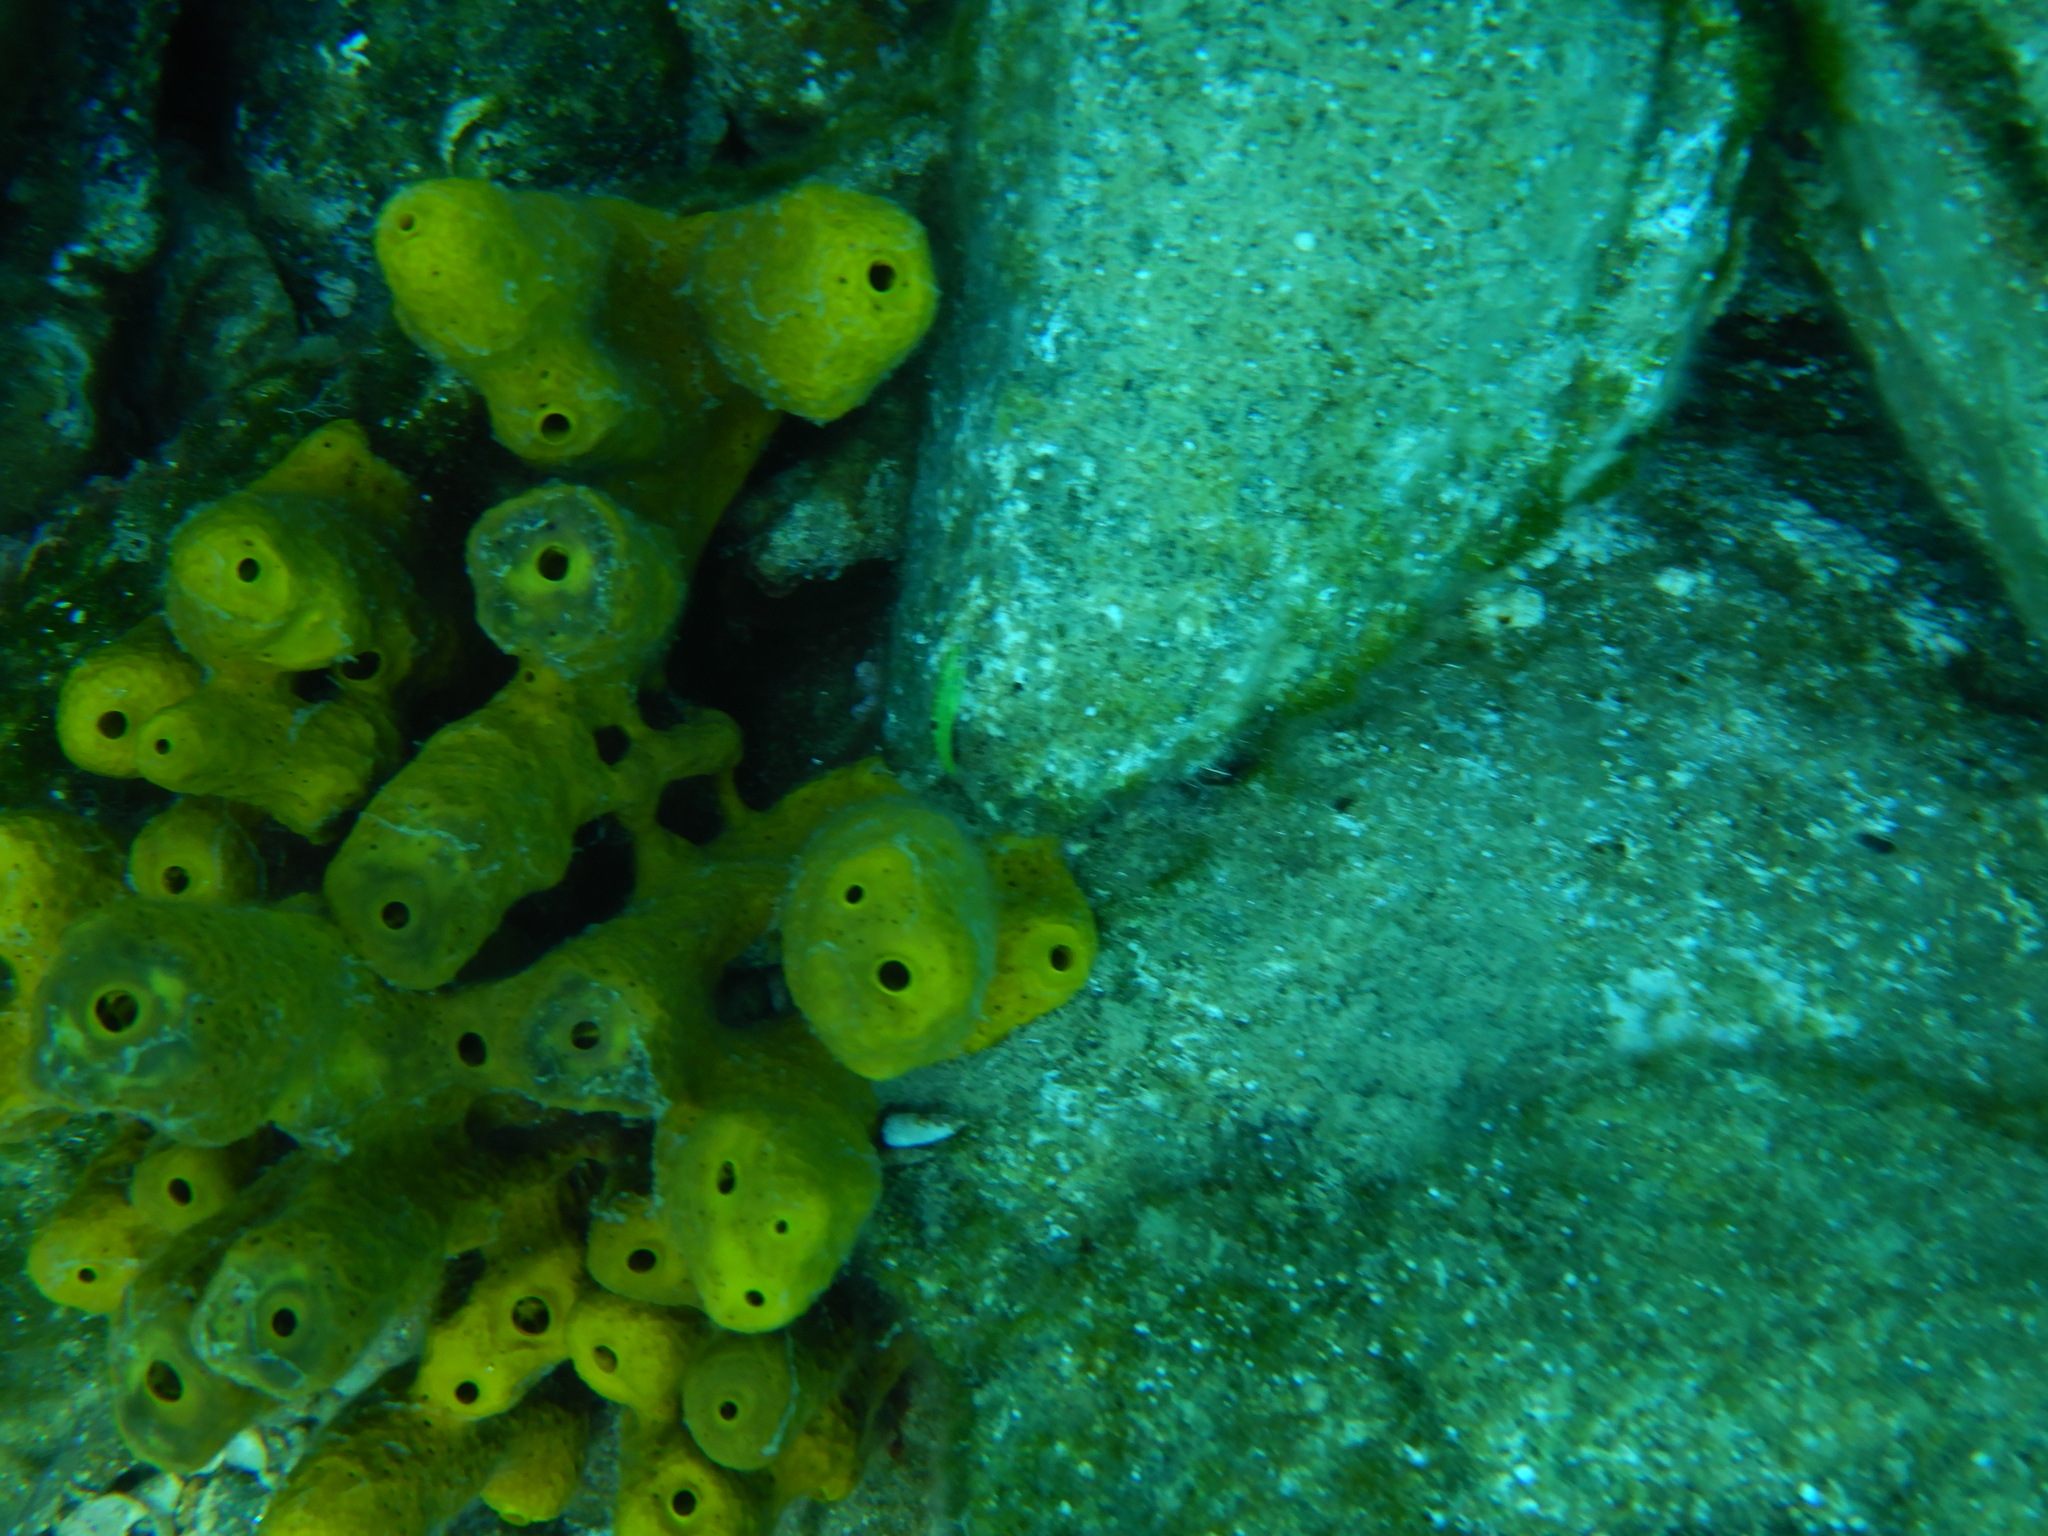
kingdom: Animalia
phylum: Porifera
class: Demospongiae
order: Verongiida
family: Aplysinidae
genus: Aplysina
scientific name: Aplysina aerophoba
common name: Aureate sponge
